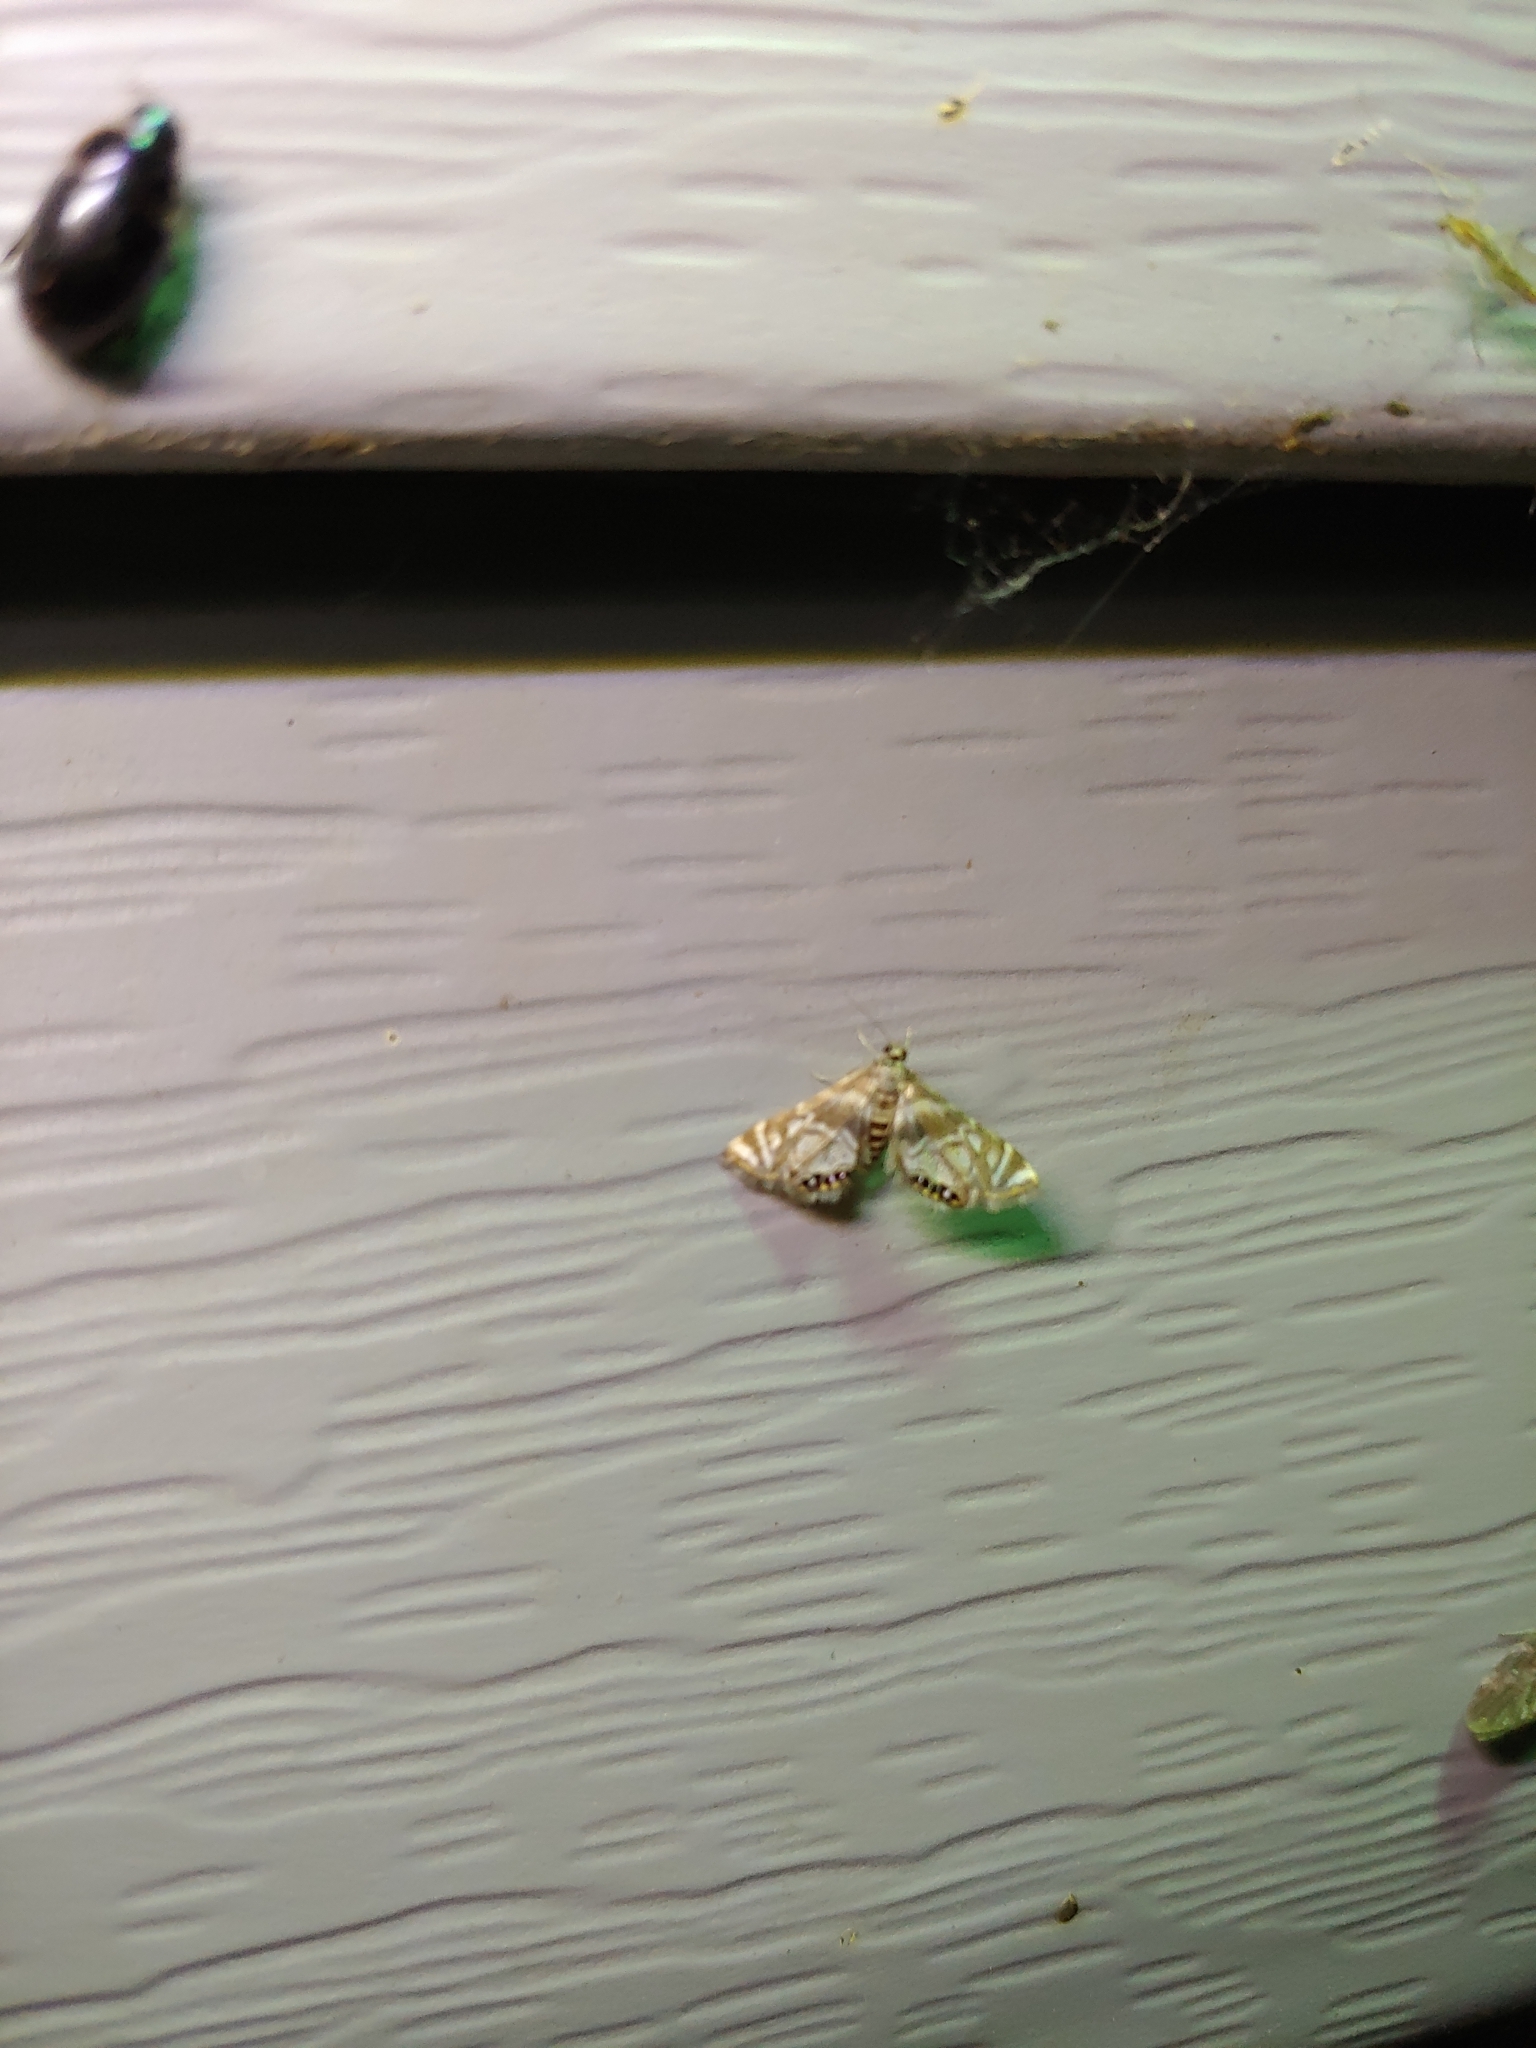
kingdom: Animalia
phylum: Arthropoda
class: Insecta
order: Lepidoptera
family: Crambidae
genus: Elophila
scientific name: Elophila icciusalis
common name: Pondside pyralid moth
